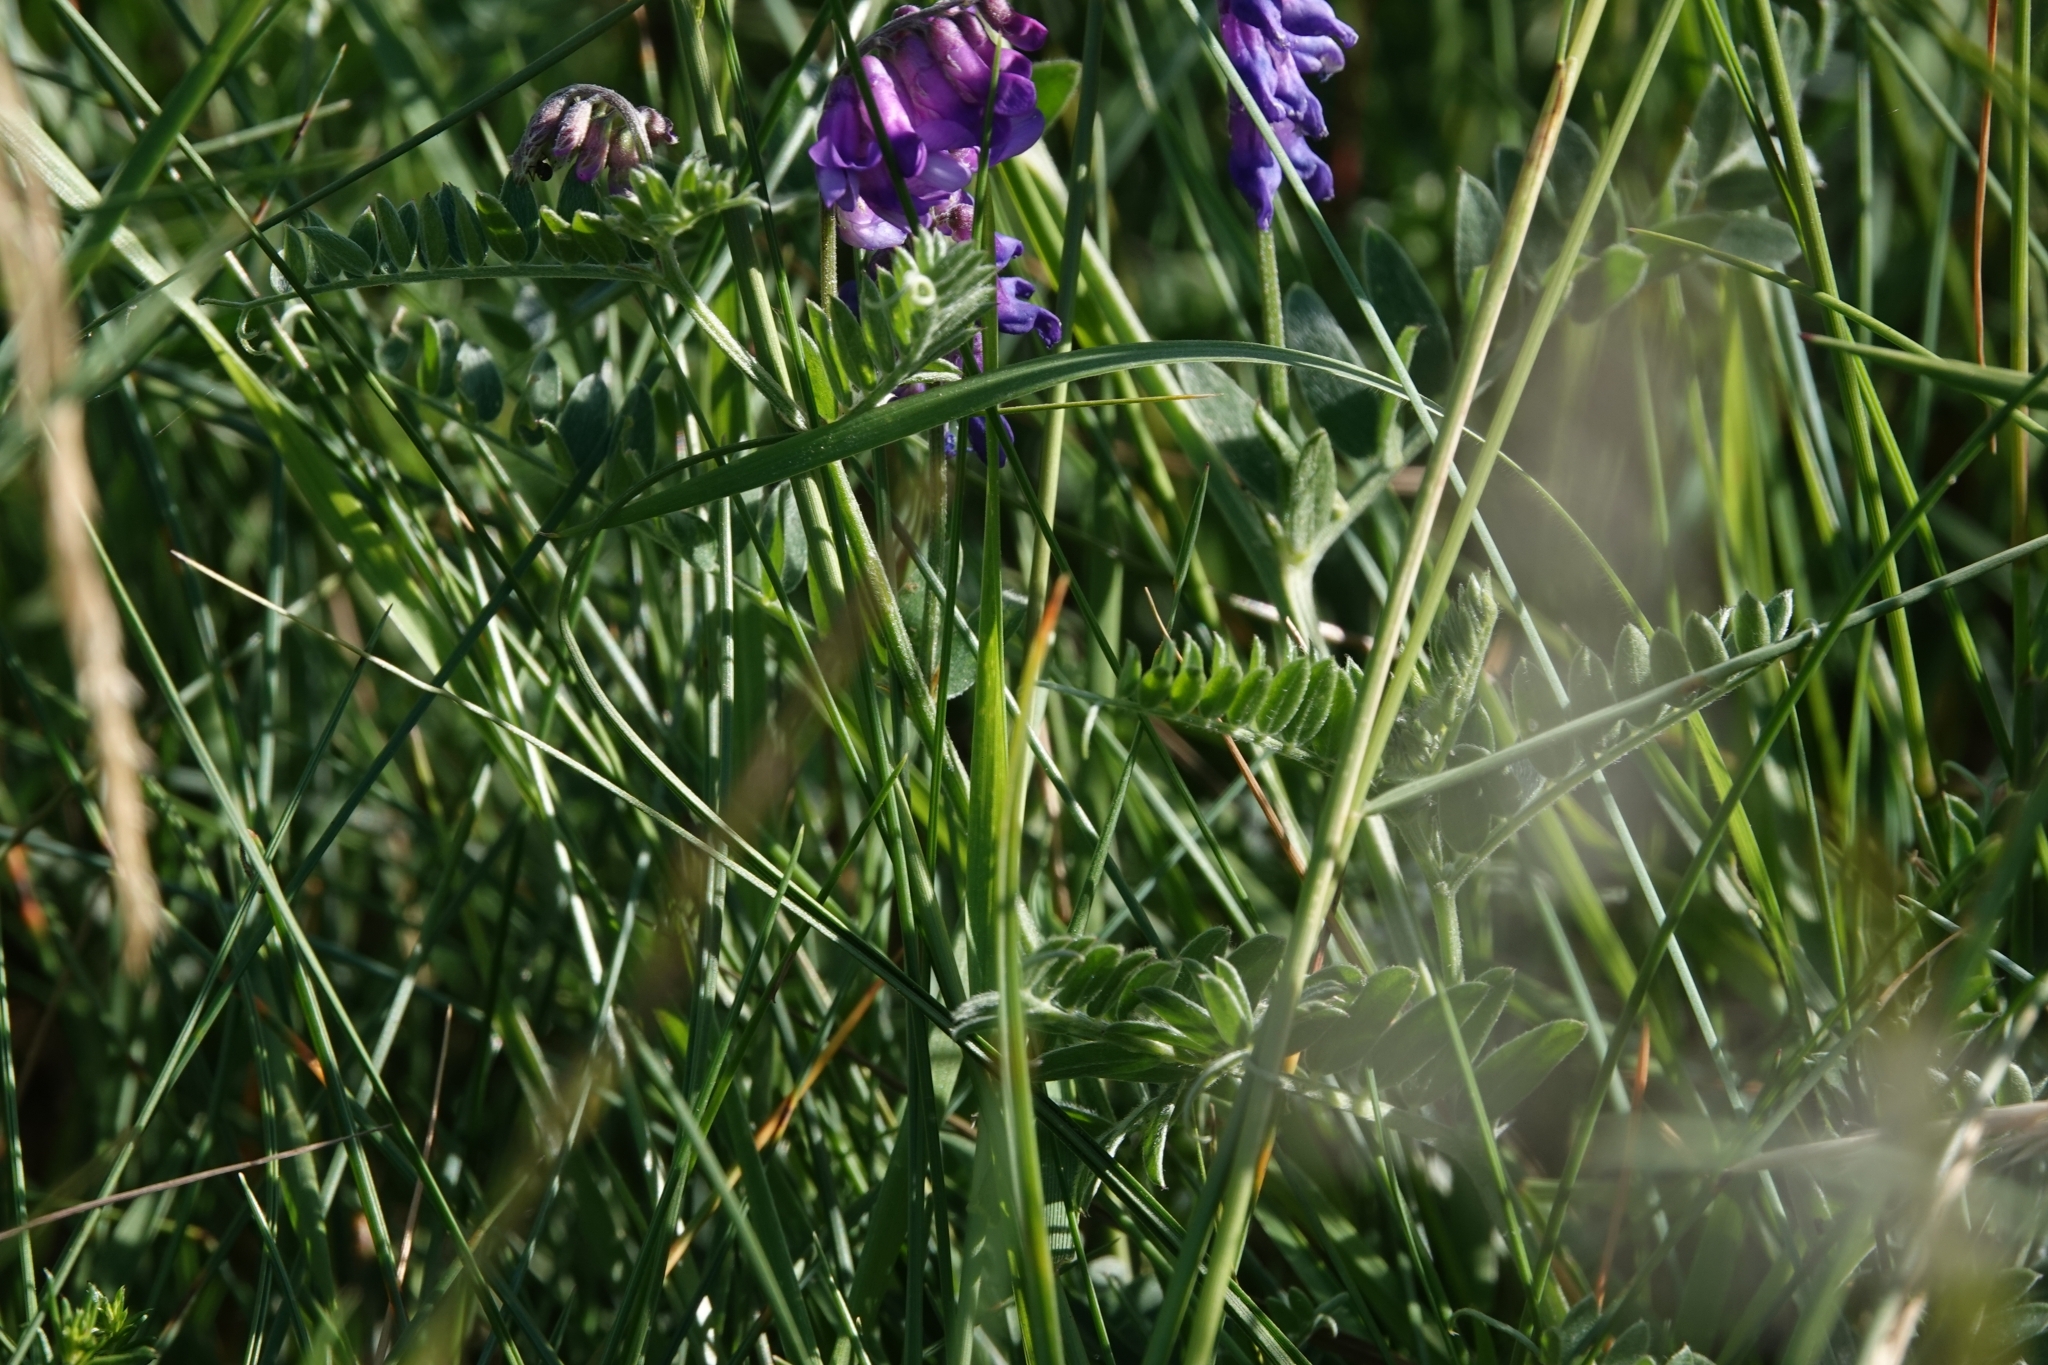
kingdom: Plantae
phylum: Tracheophyta
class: Magnoliopsida
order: Fabales
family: Fabaceae
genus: Vicia
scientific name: Vicia cracca
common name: Bird vetch
